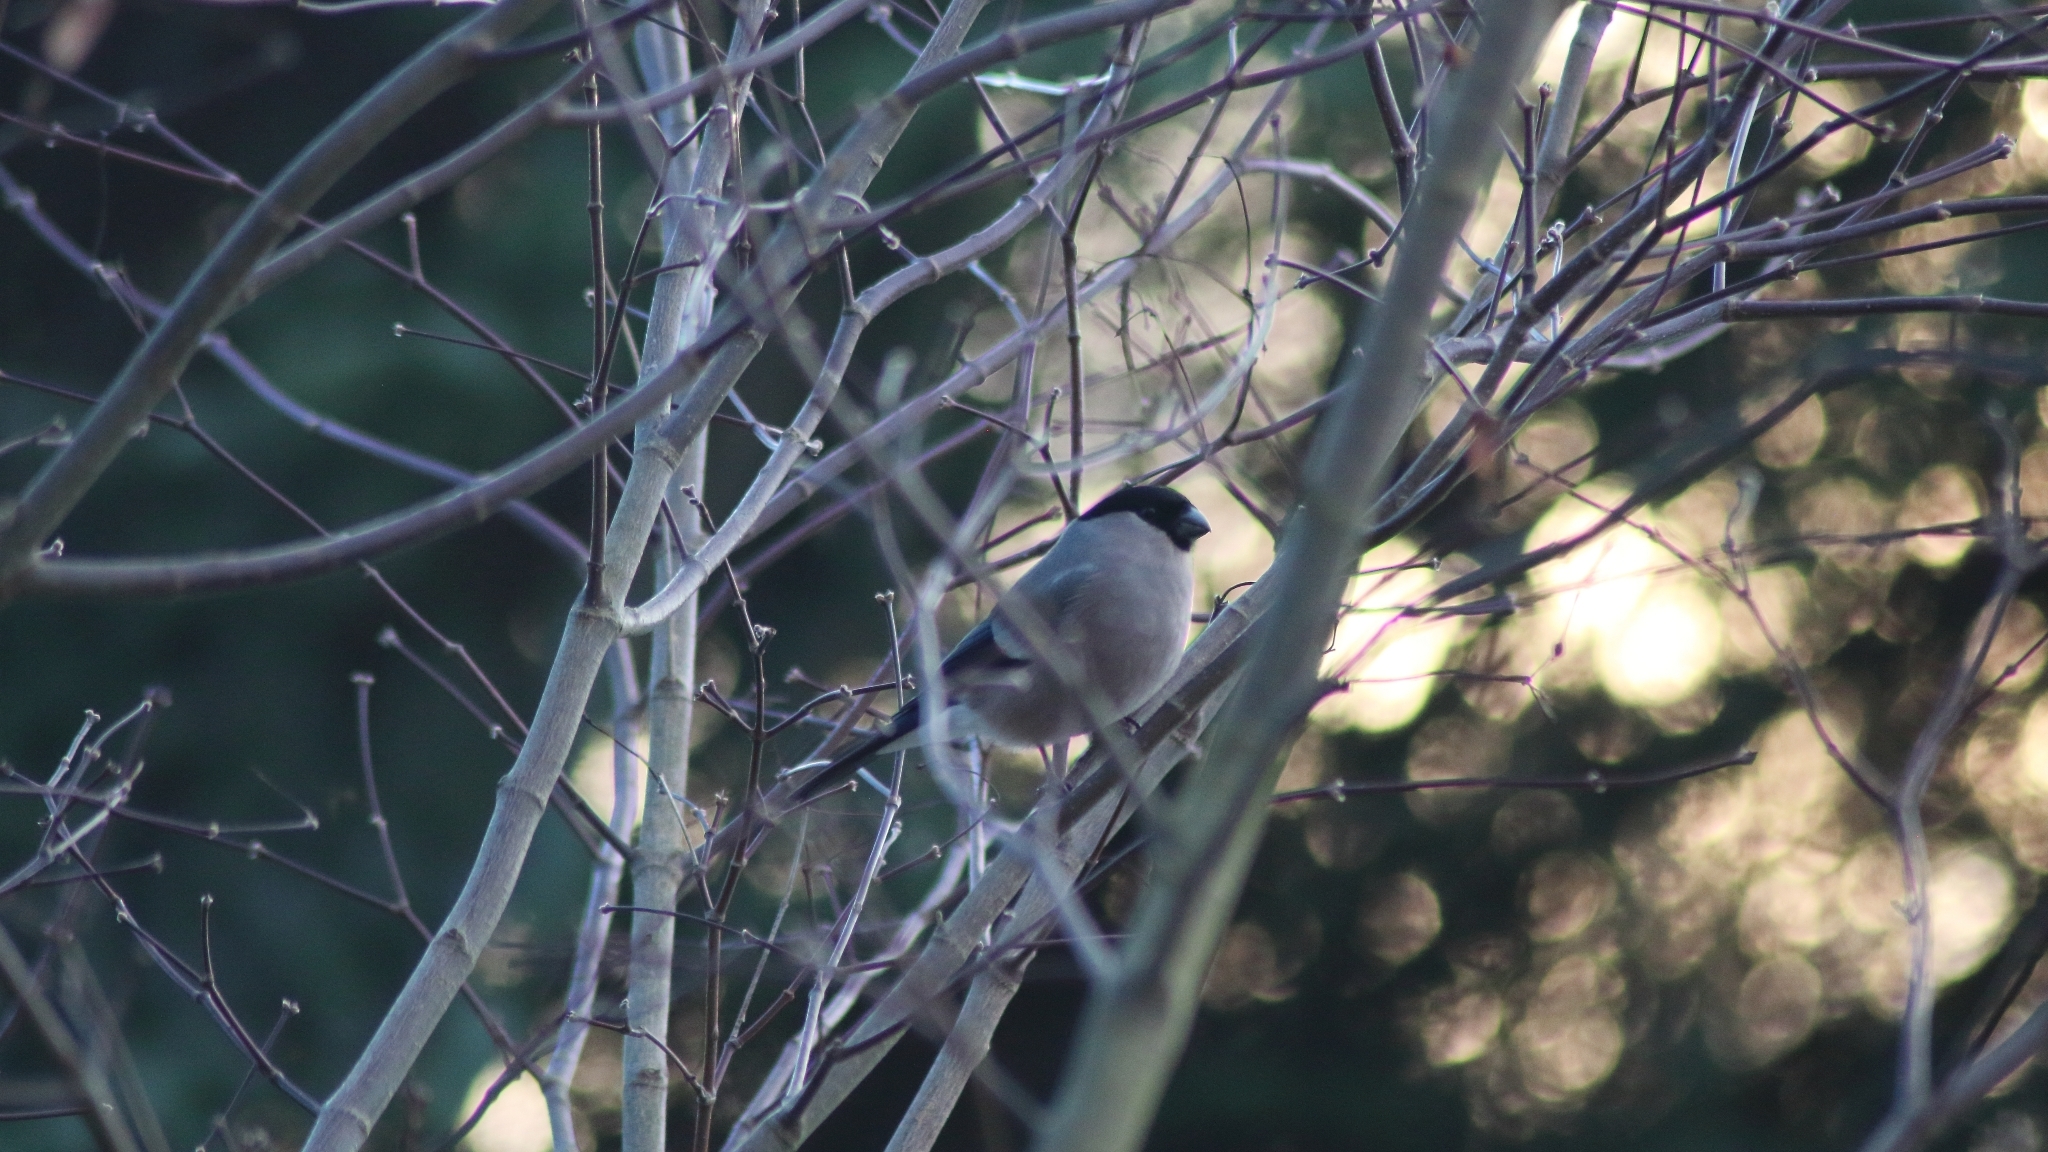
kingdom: Animalia
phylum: Chordata
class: Aves
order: Passeriformes
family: Fringillidae
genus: Pyrrhula
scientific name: Pyrrhula pyrrhula
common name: Eurasian bullfinch
